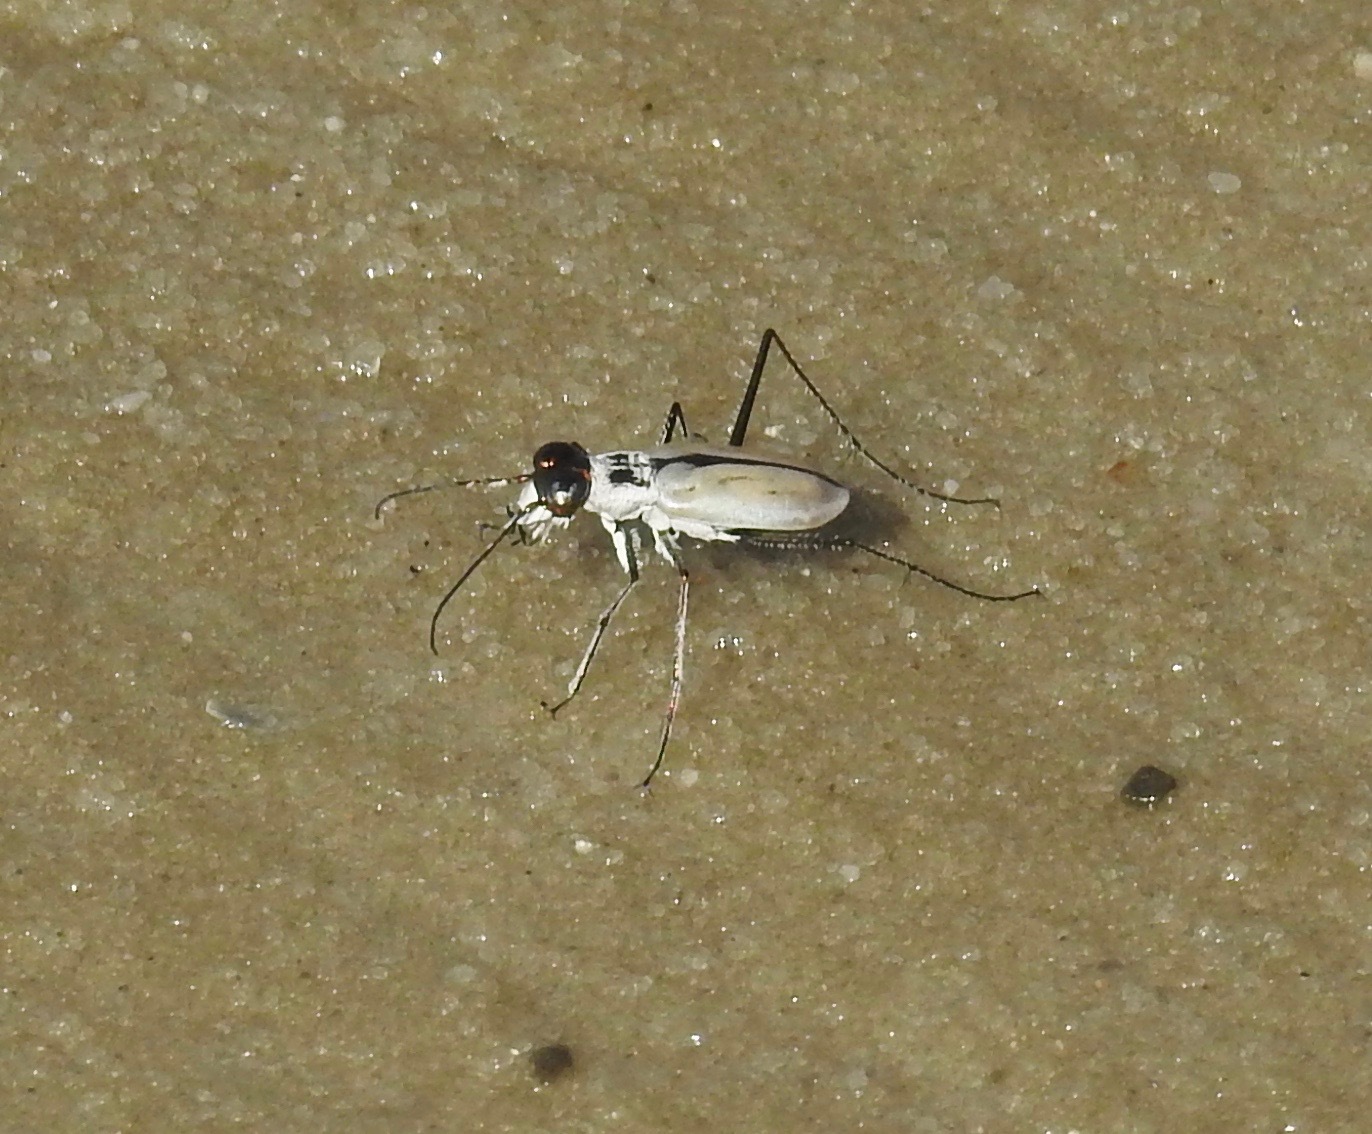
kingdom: Animalia
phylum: Arthropoda
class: Insecta
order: Coleoptera
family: Carabidae
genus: Habroscelimorpha
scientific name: Habroscelimorpha dorsalis
